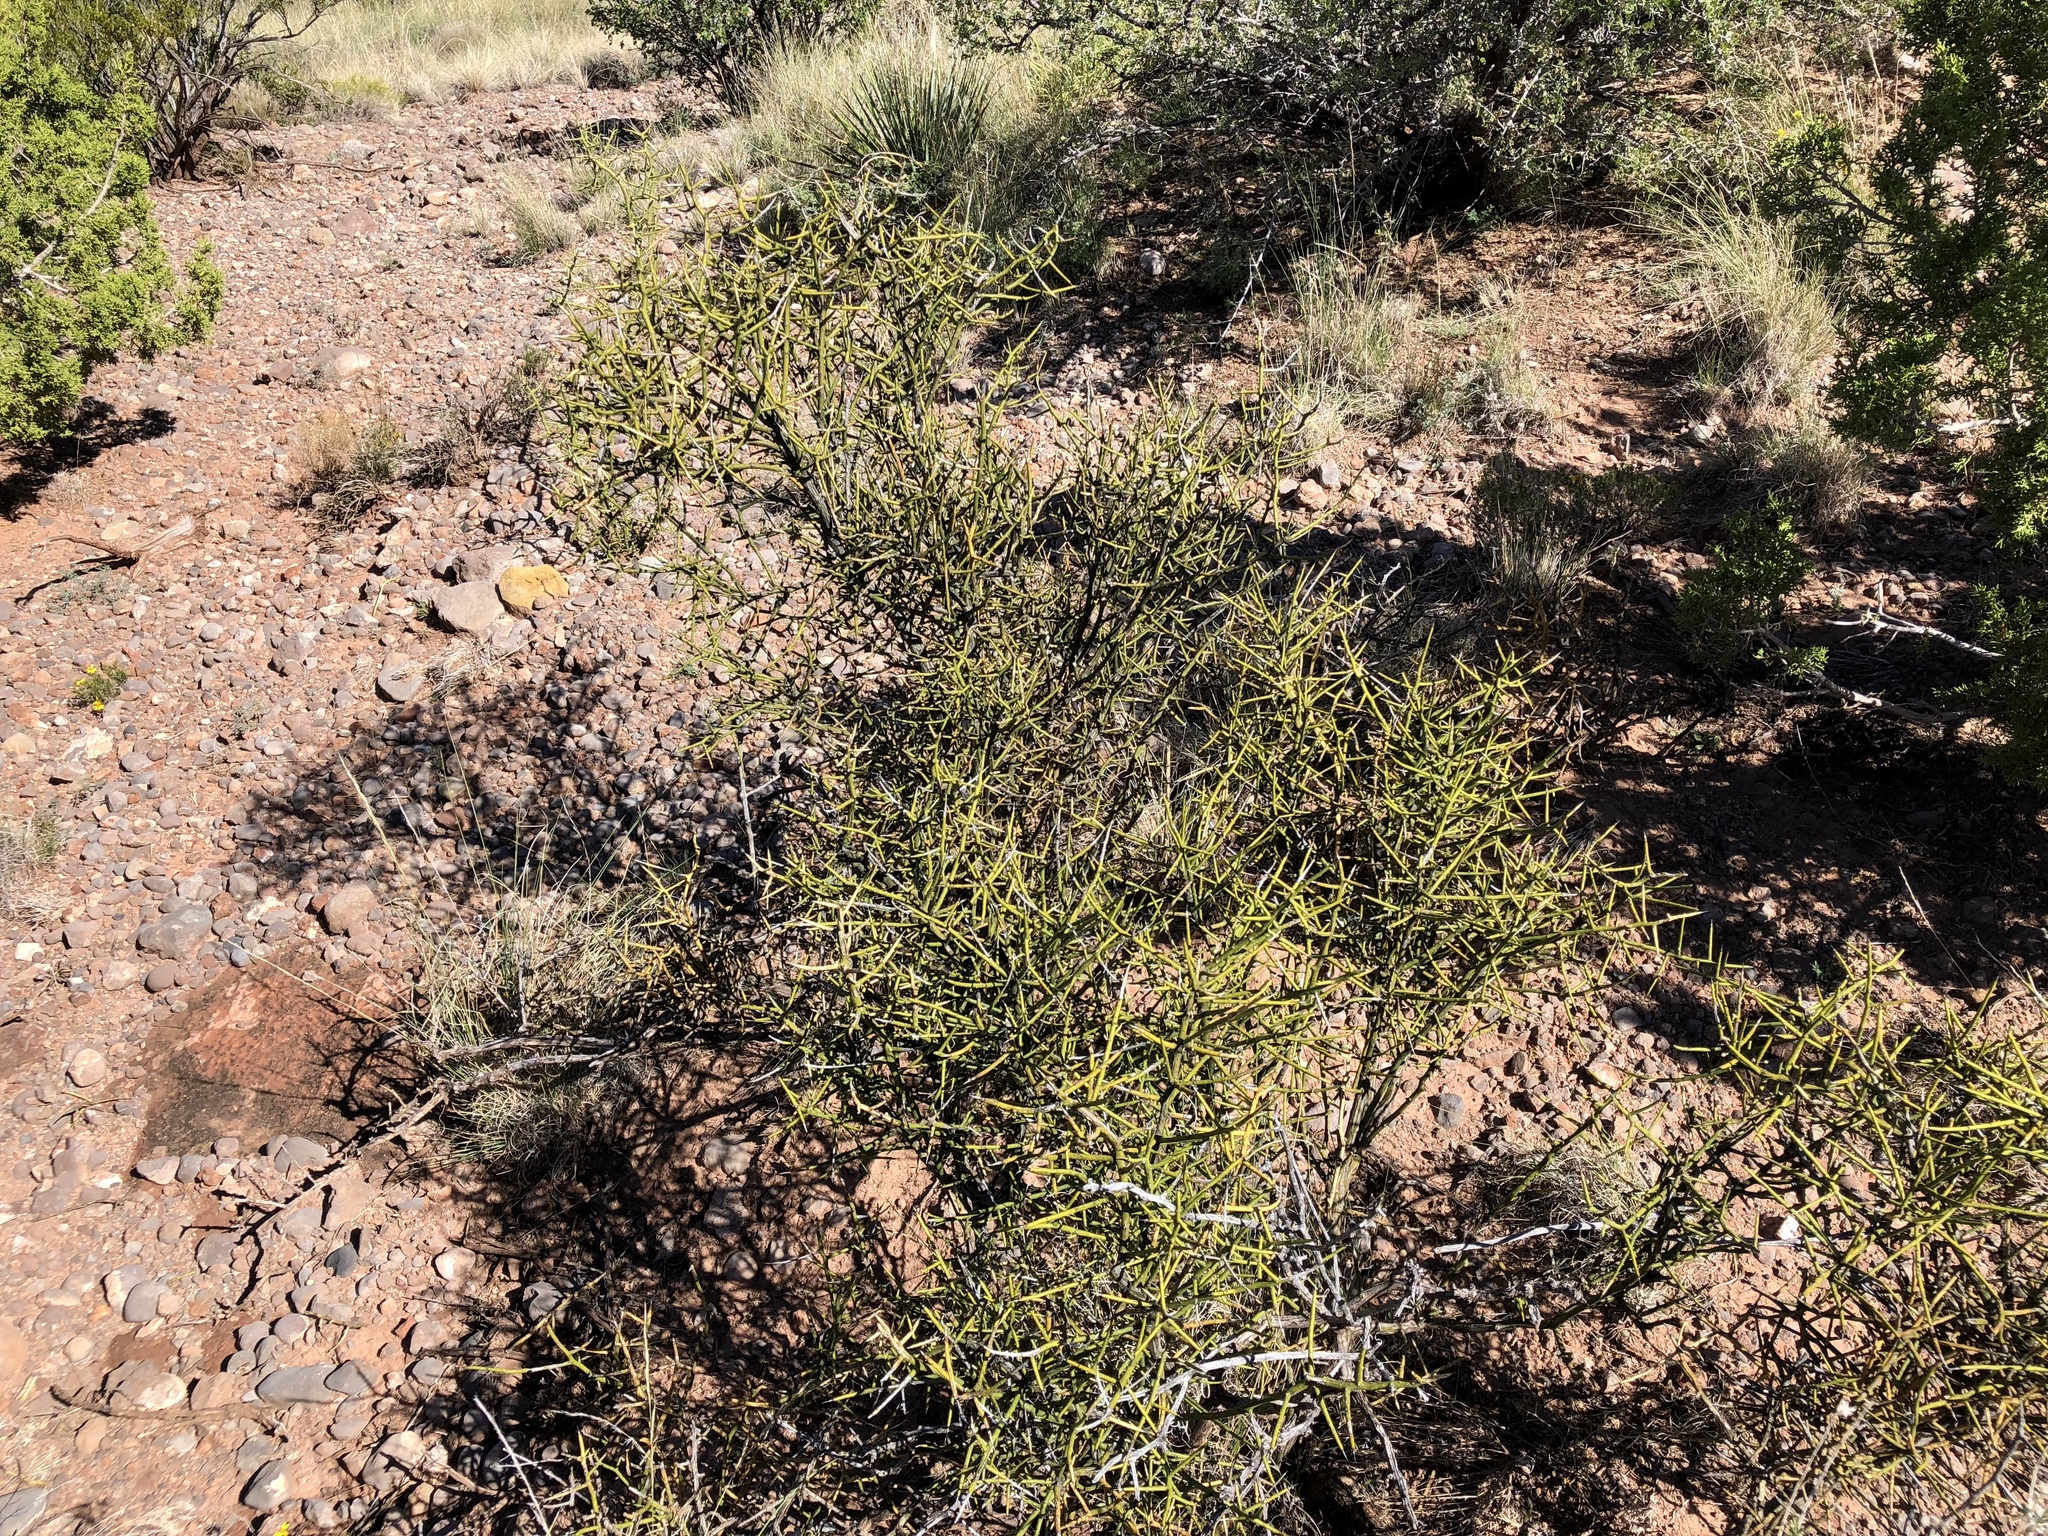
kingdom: Plantae
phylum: Tracheophyta
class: Magnoliopsida
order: Zygophyllales
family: Zygophyllaceae
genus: Larrea
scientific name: Larrea tridentata
